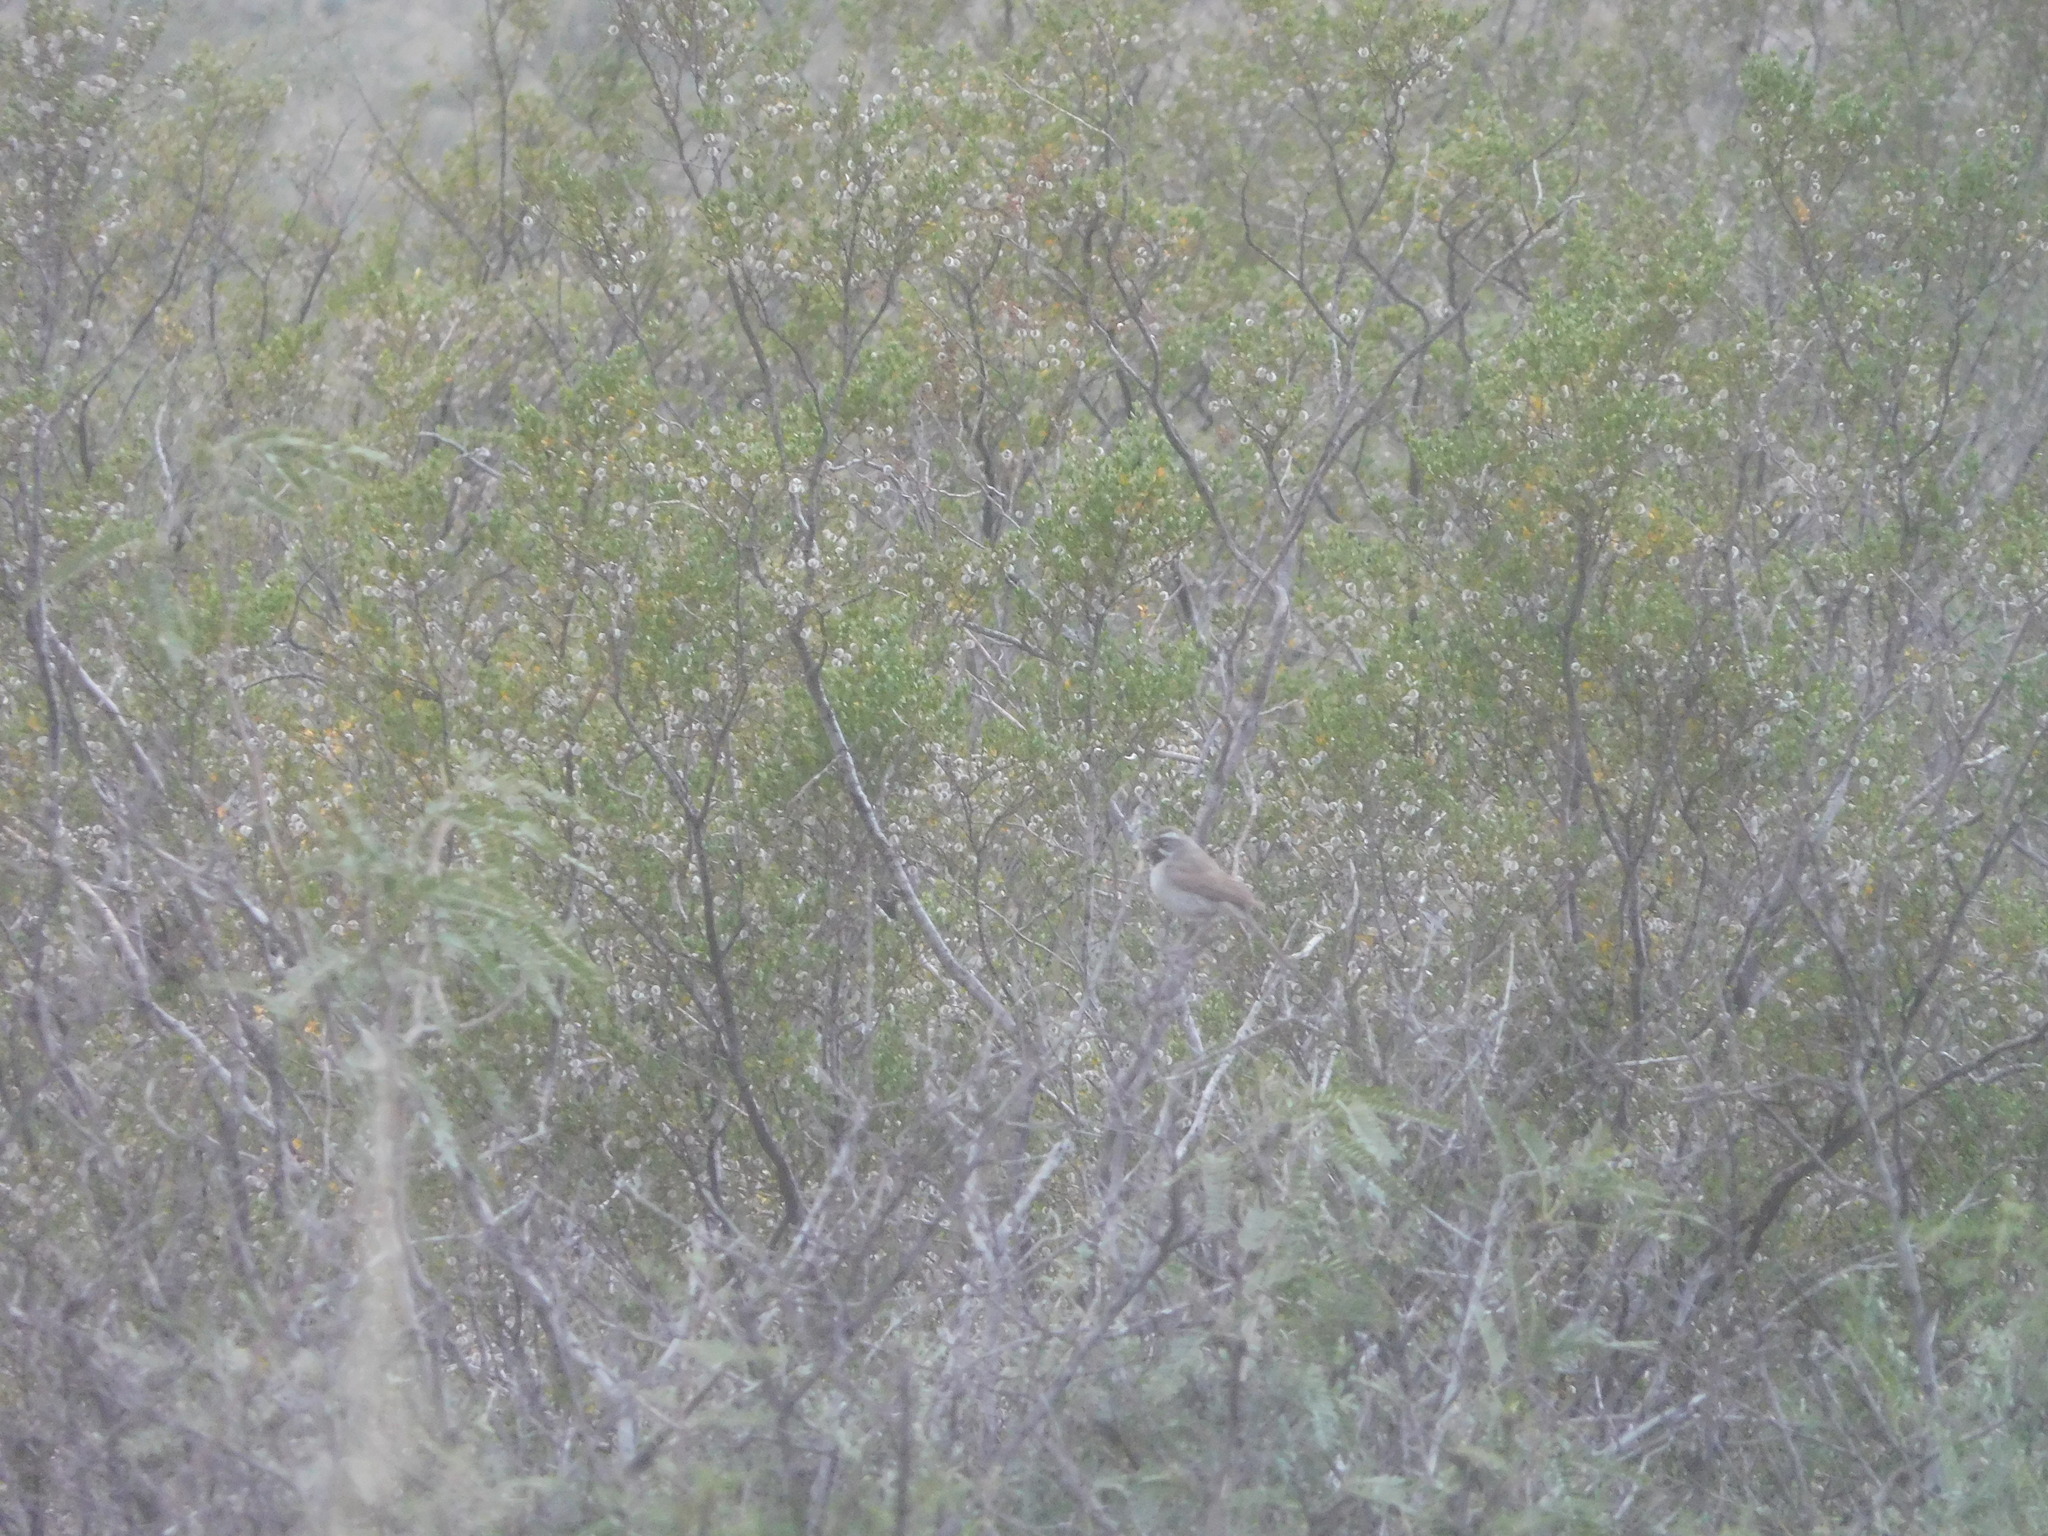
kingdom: Animalia
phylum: Chordata
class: Aves
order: Passeriformes
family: Passerellidae
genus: Amphispiza
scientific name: Amphispiza bilineata
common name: Black-throated sparrow
